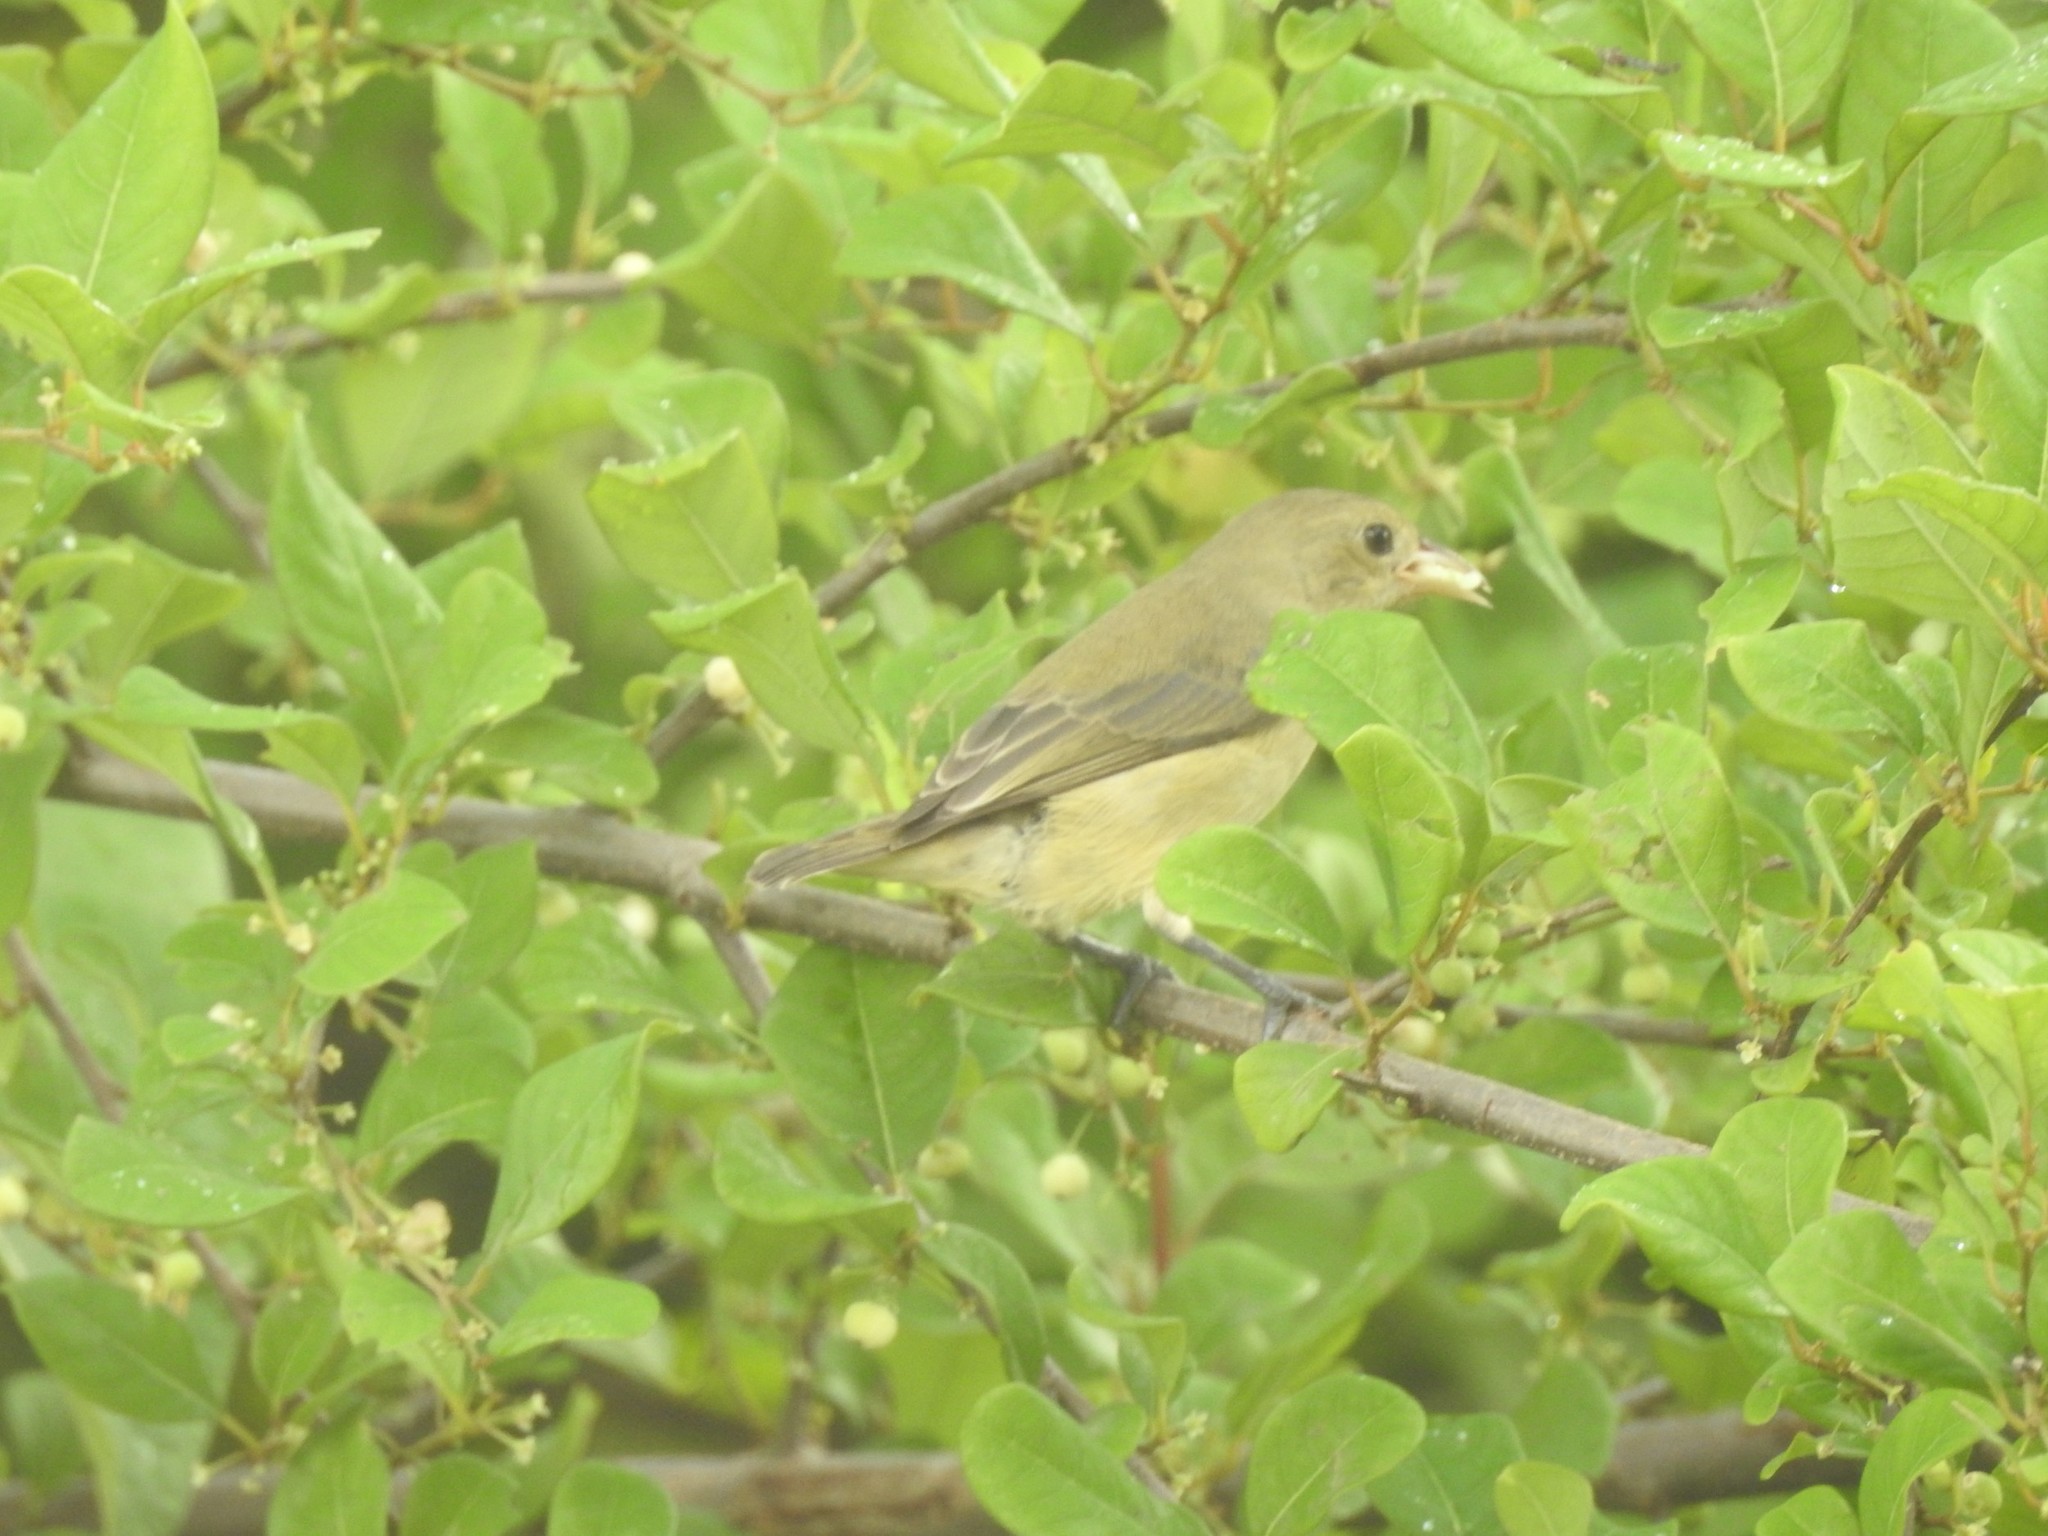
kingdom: Animalia
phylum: Chordata
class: Aves
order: Passeriformes
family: Dicaeidae
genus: Dicaeum
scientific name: Dicaeum erythrorhynchos
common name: Pale-billed flowerpecker
